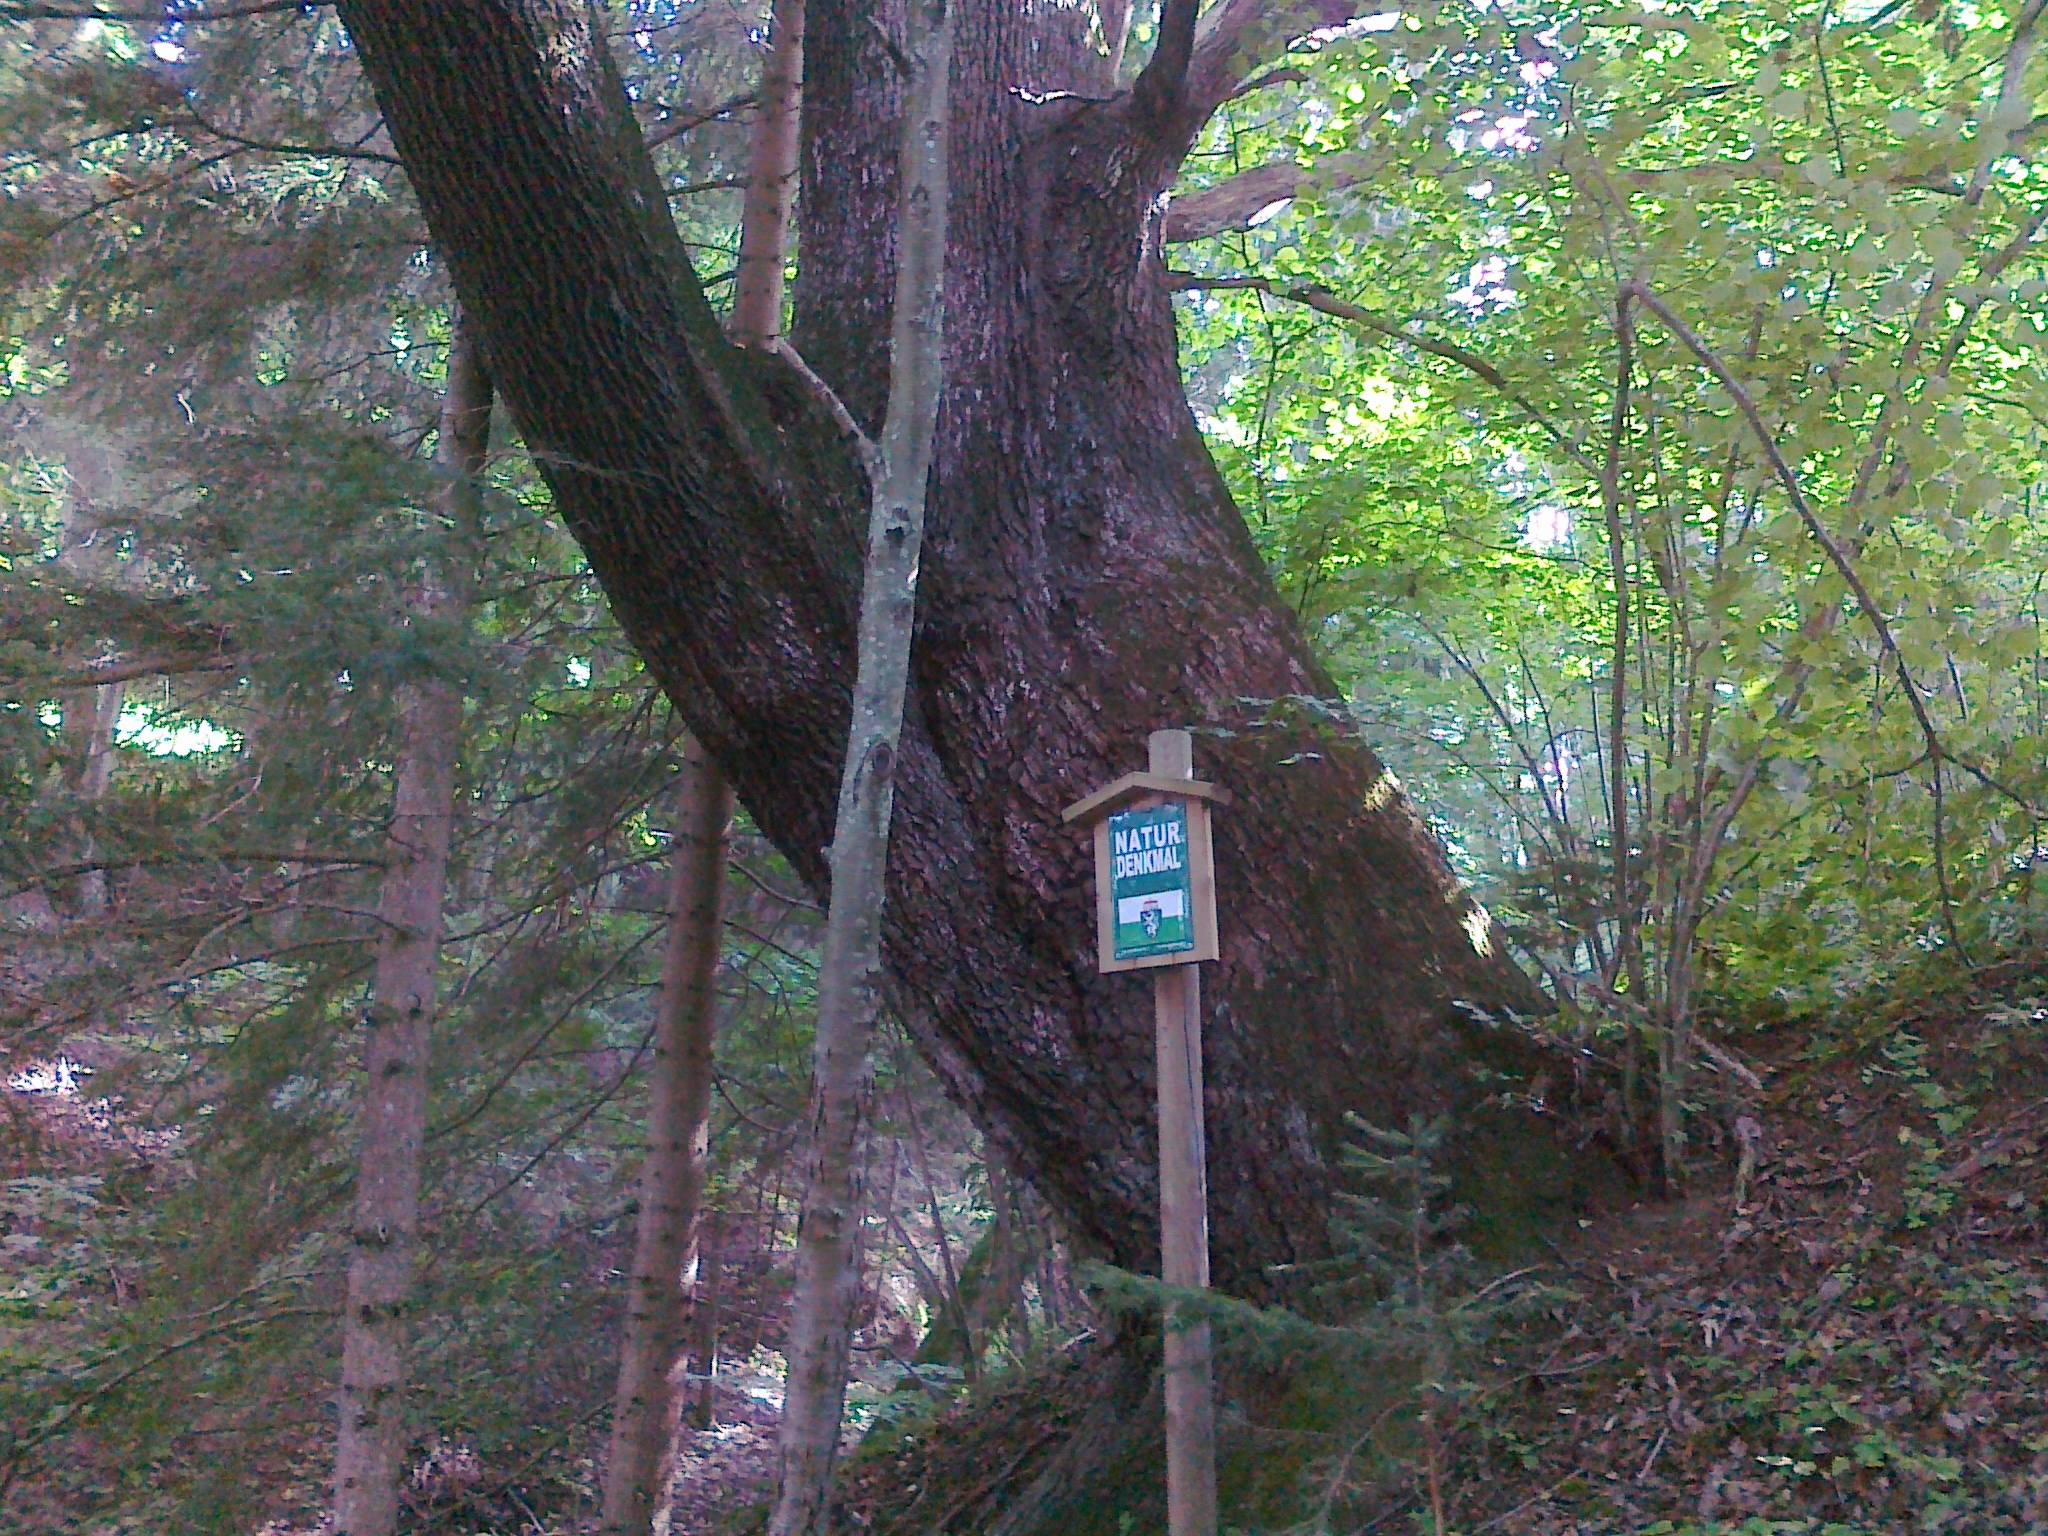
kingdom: Plantae
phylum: Tracheophyta
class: Magnoliopsida
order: Fagales
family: Fagaceae
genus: Quercus
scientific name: Quercus robur
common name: Pedunculate oak
